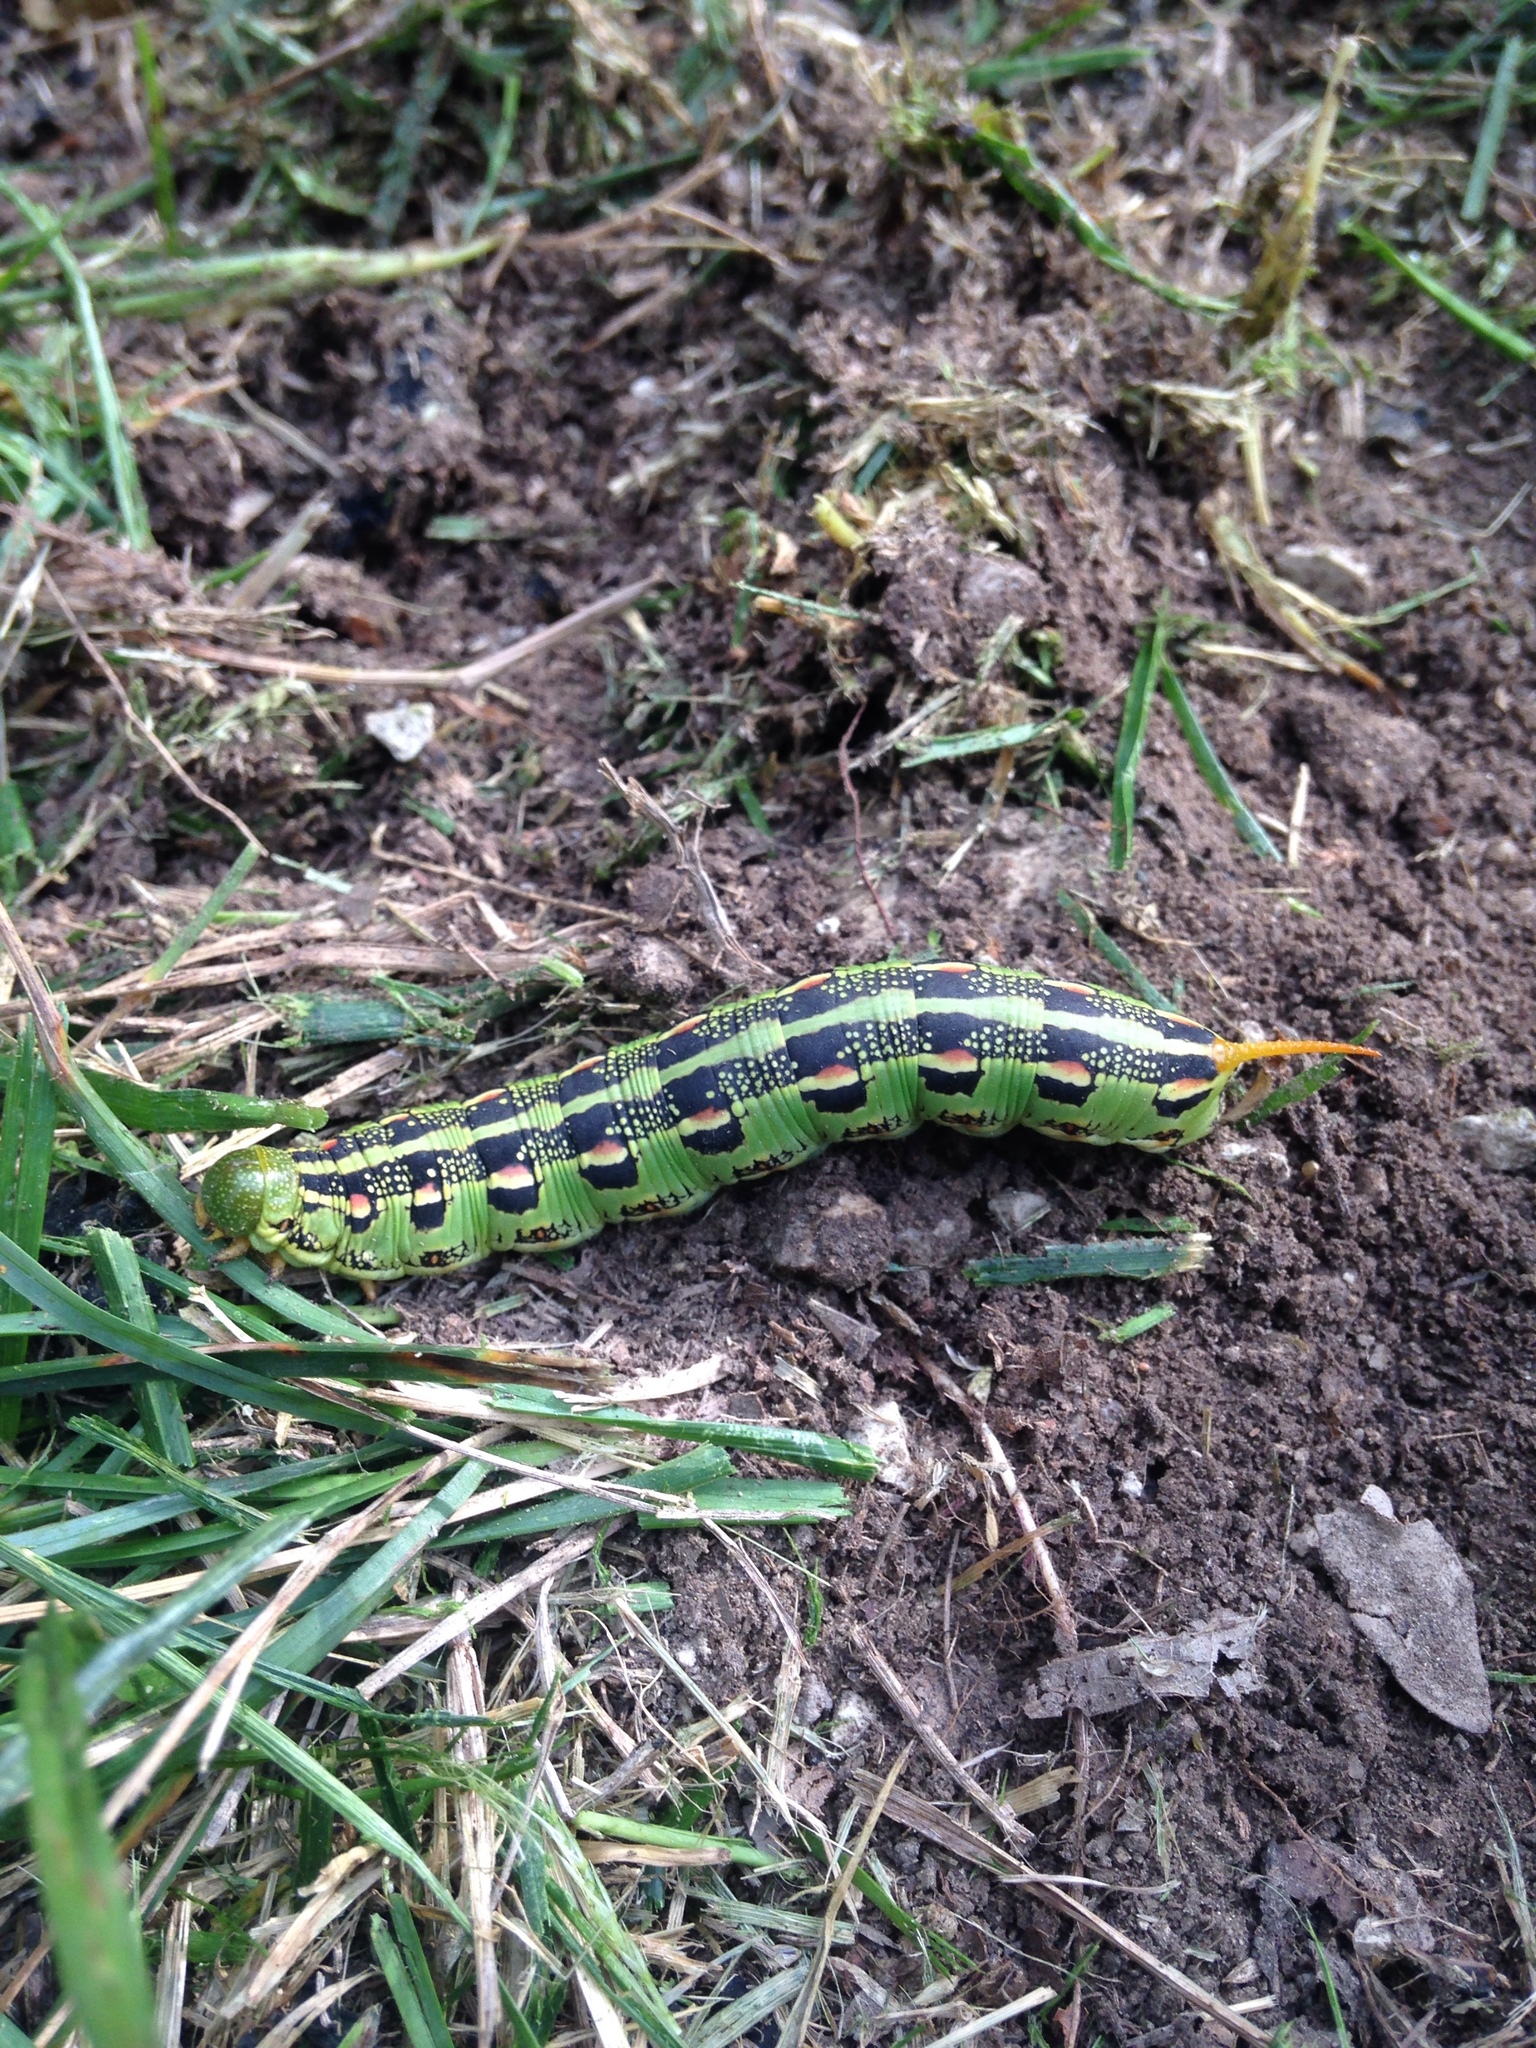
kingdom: Animalia
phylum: Arthropoda
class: Insecta
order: Lepidoptera
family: Sphingidae
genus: Hyles
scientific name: Hyles lineata
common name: White-lined sphinx
